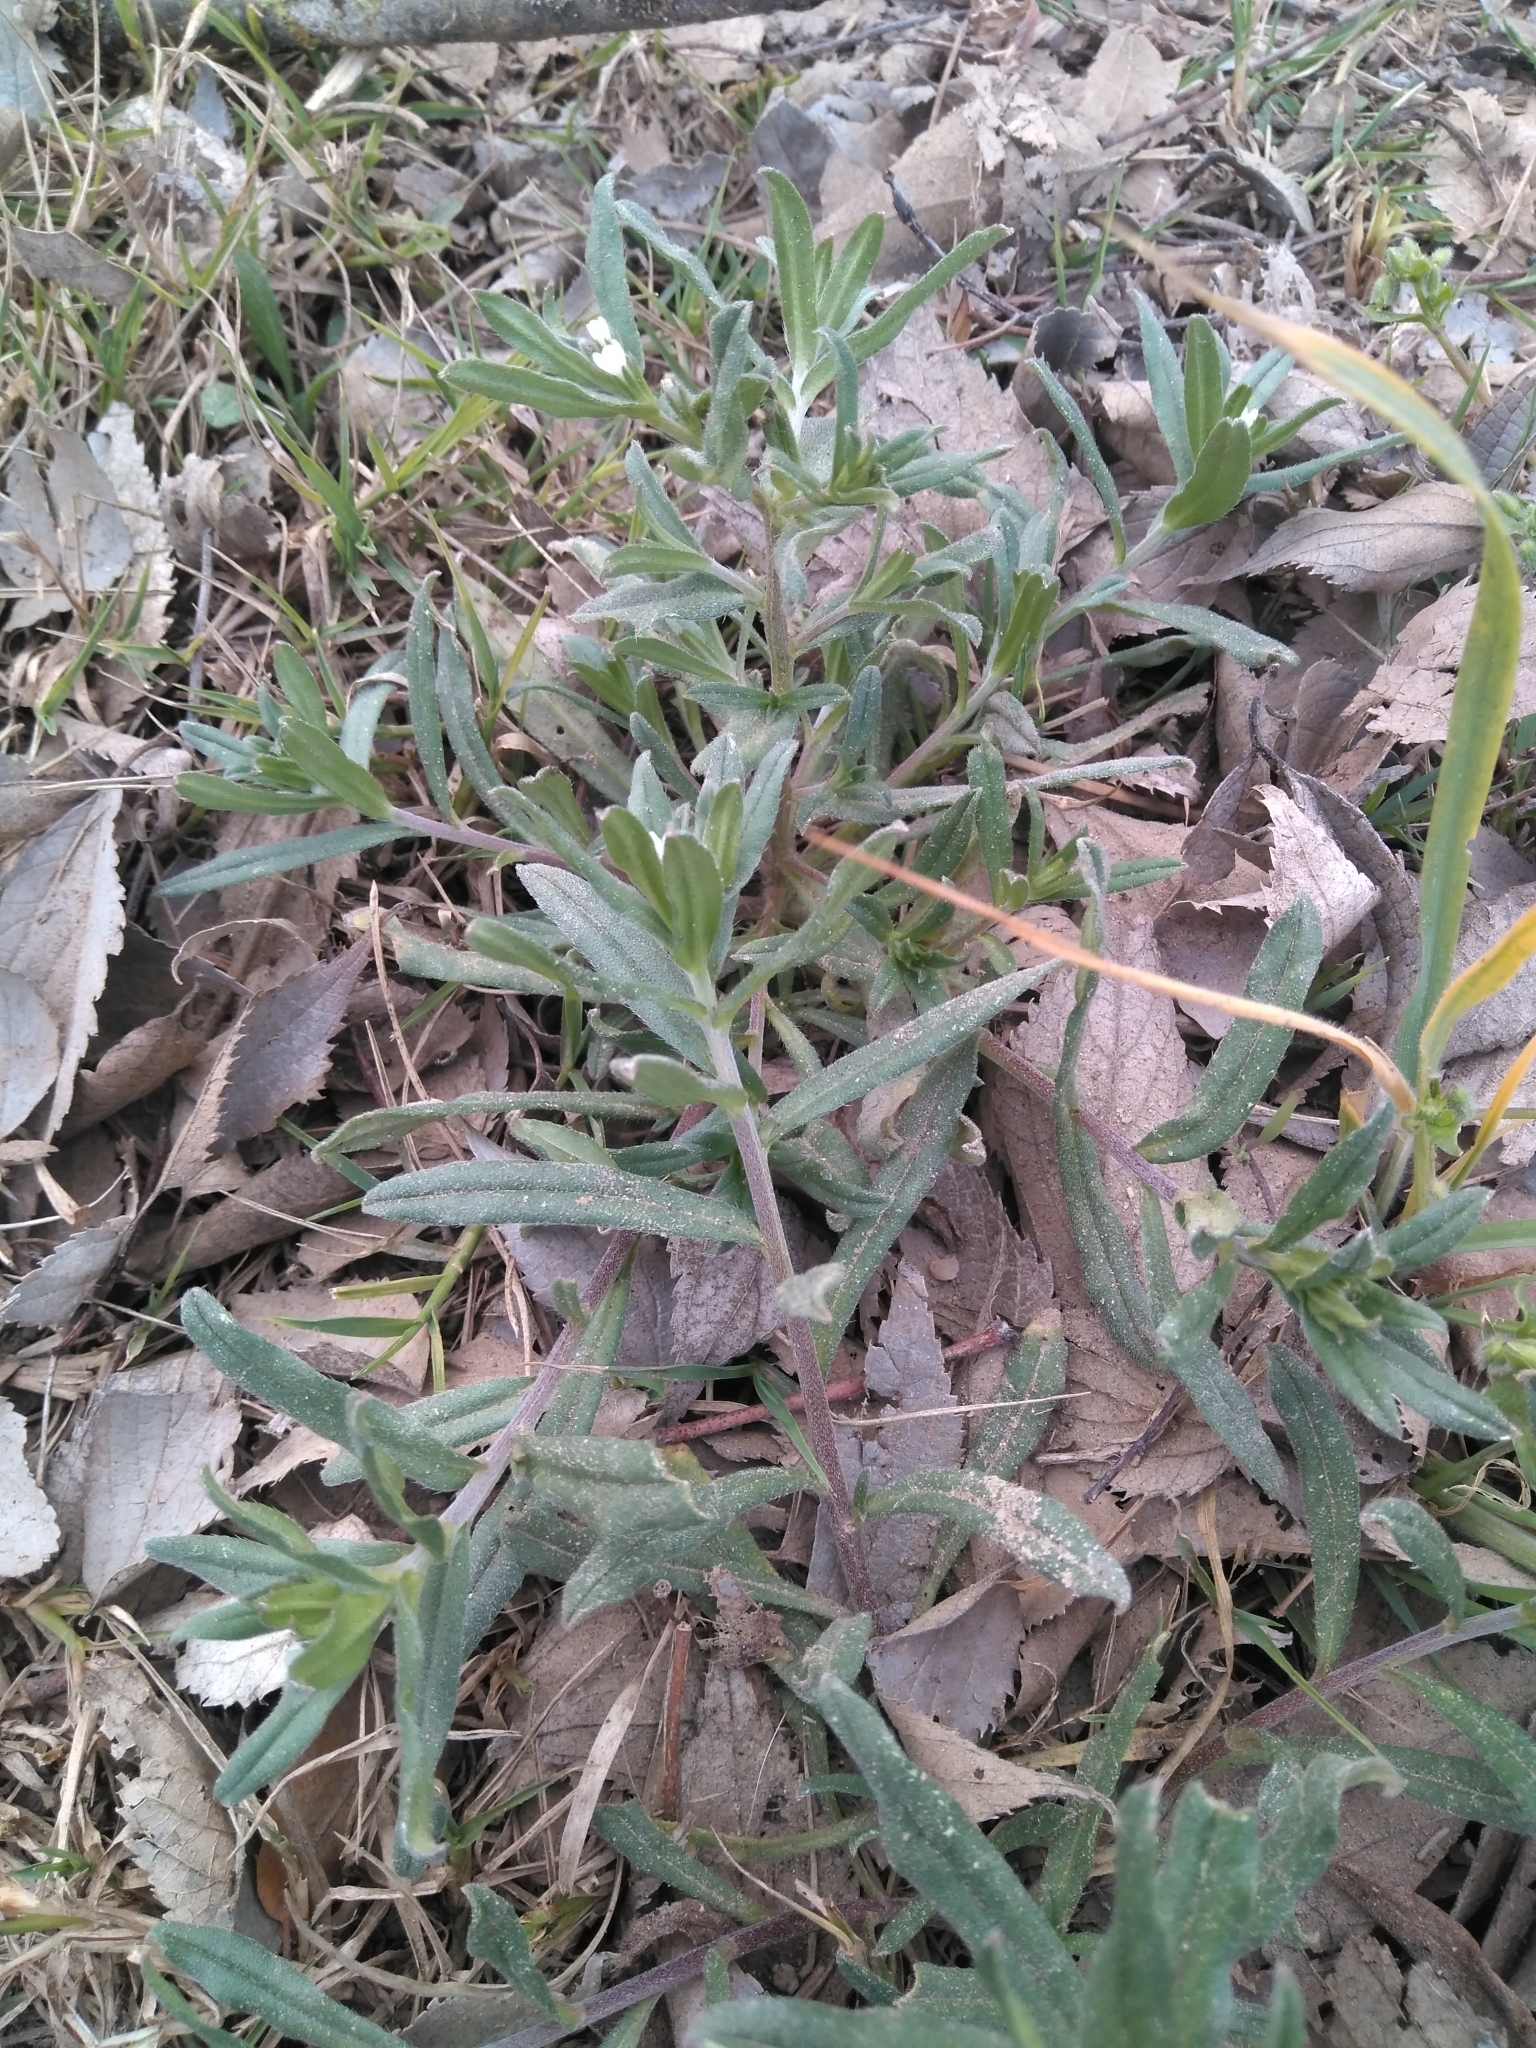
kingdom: Plantae
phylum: Tracheophyta
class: Magnoliopsida
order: Boraginales
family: Boraginaceae
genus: Buglossoides
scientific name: Buglossoides arvensis
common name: Corn gromwell
